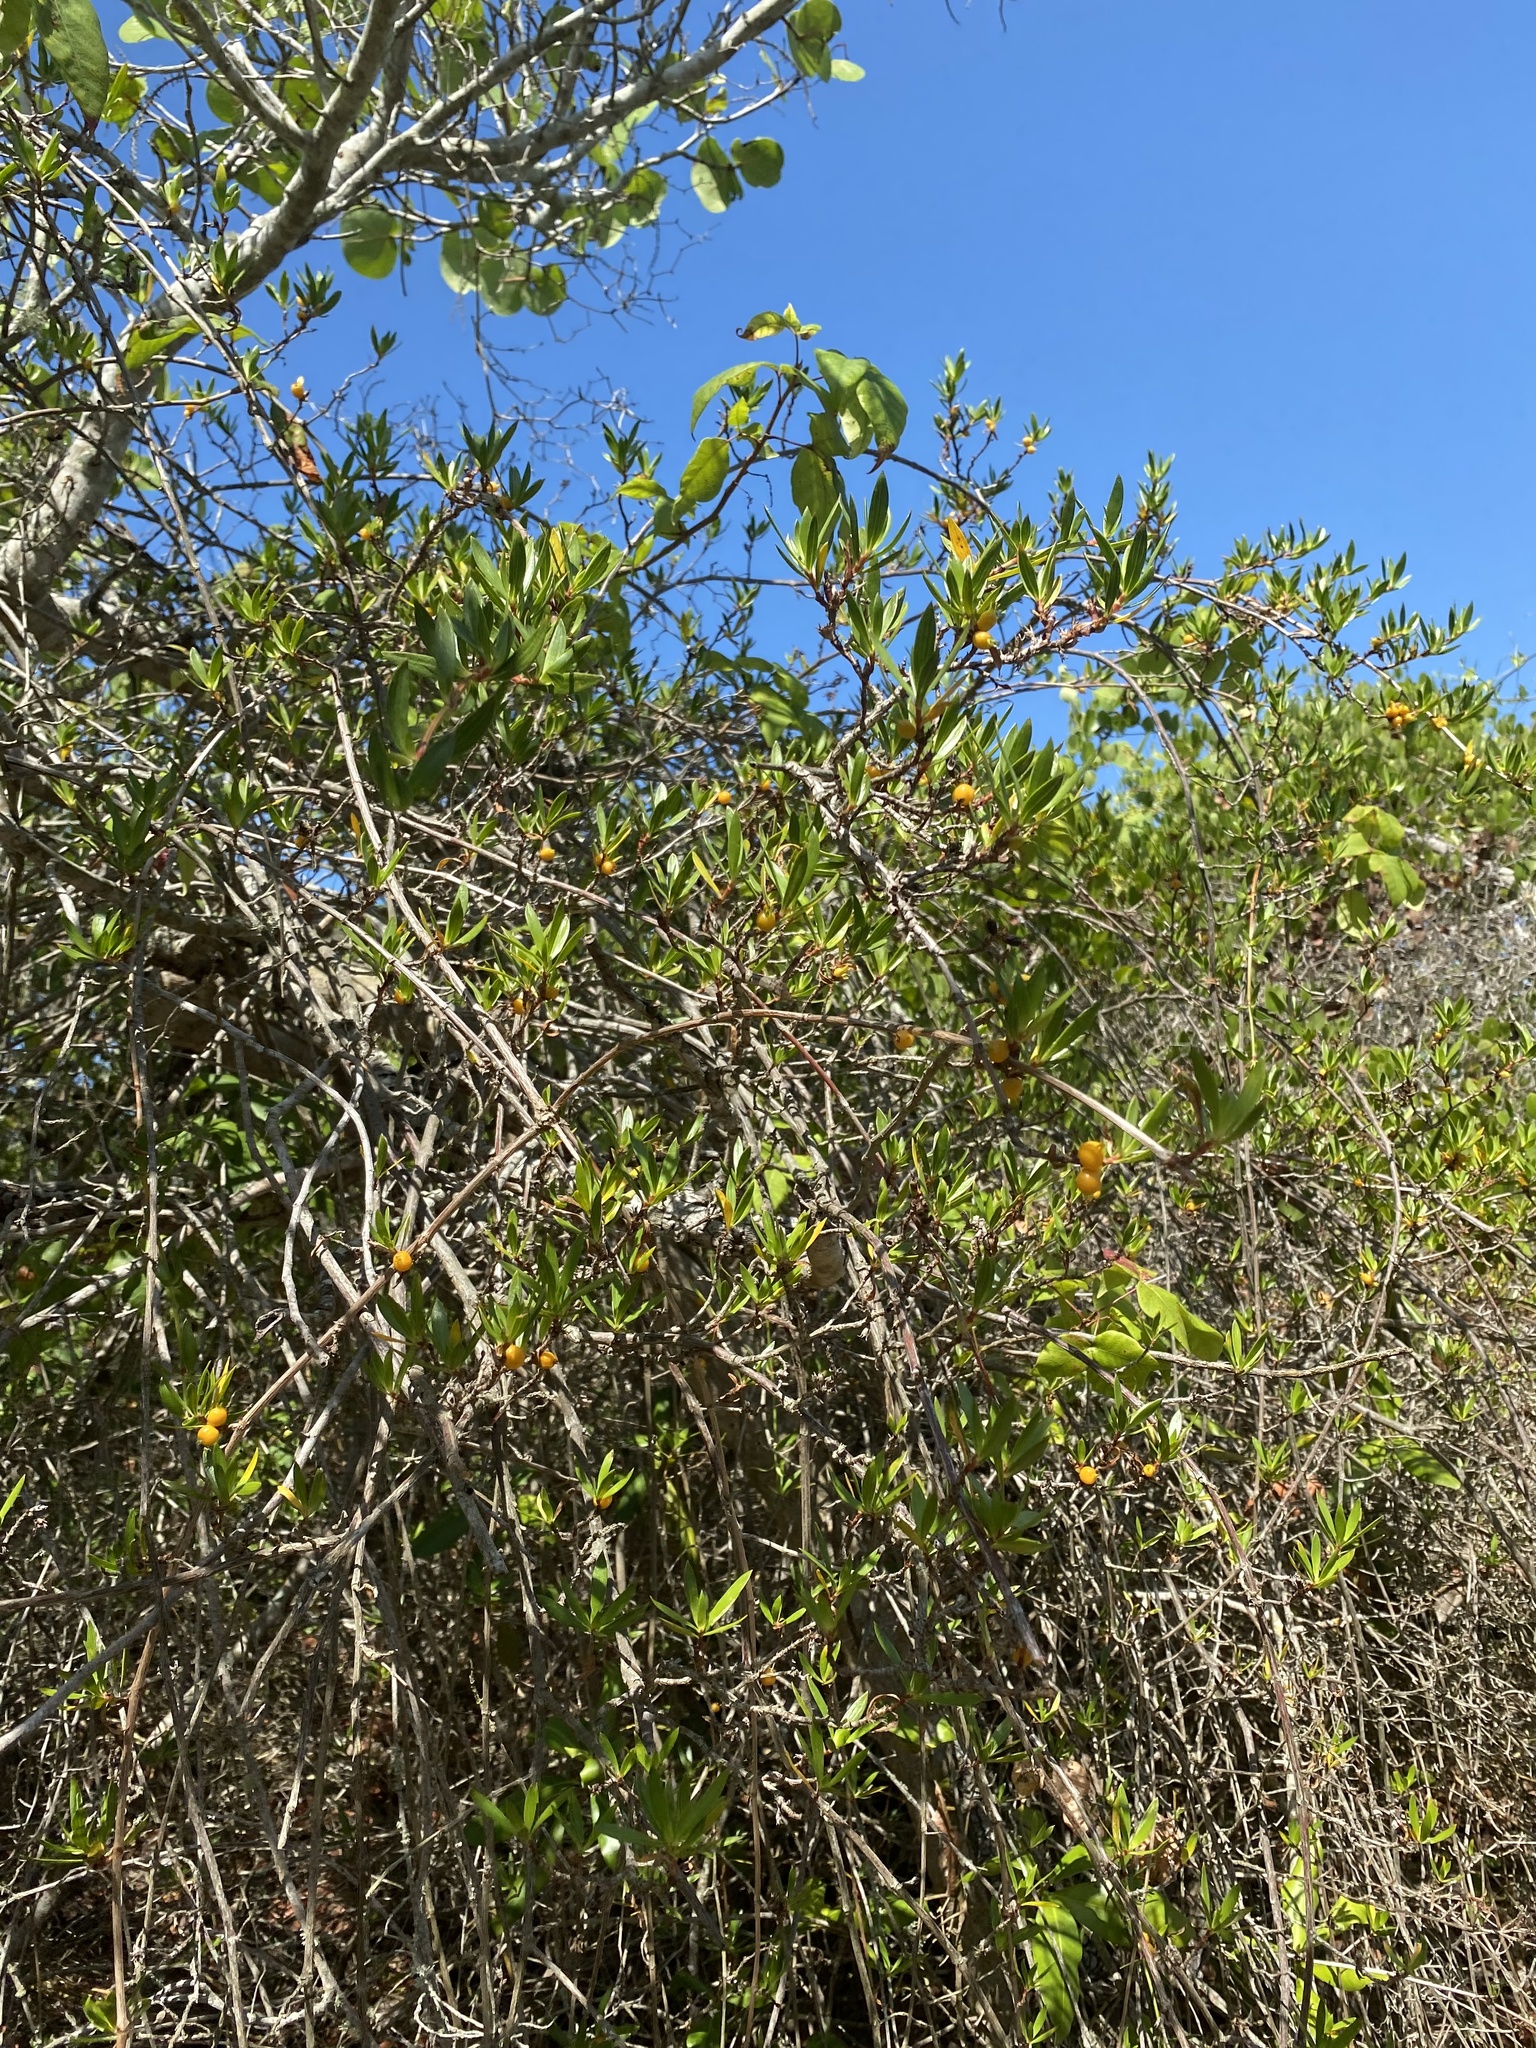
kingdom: Plantae
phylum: Tracheophyta
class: Magnoliopsida
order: Gentianales
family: Rubiaceae
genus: Ernodea
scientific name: Ernodea littoralis
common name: Beach creeper
